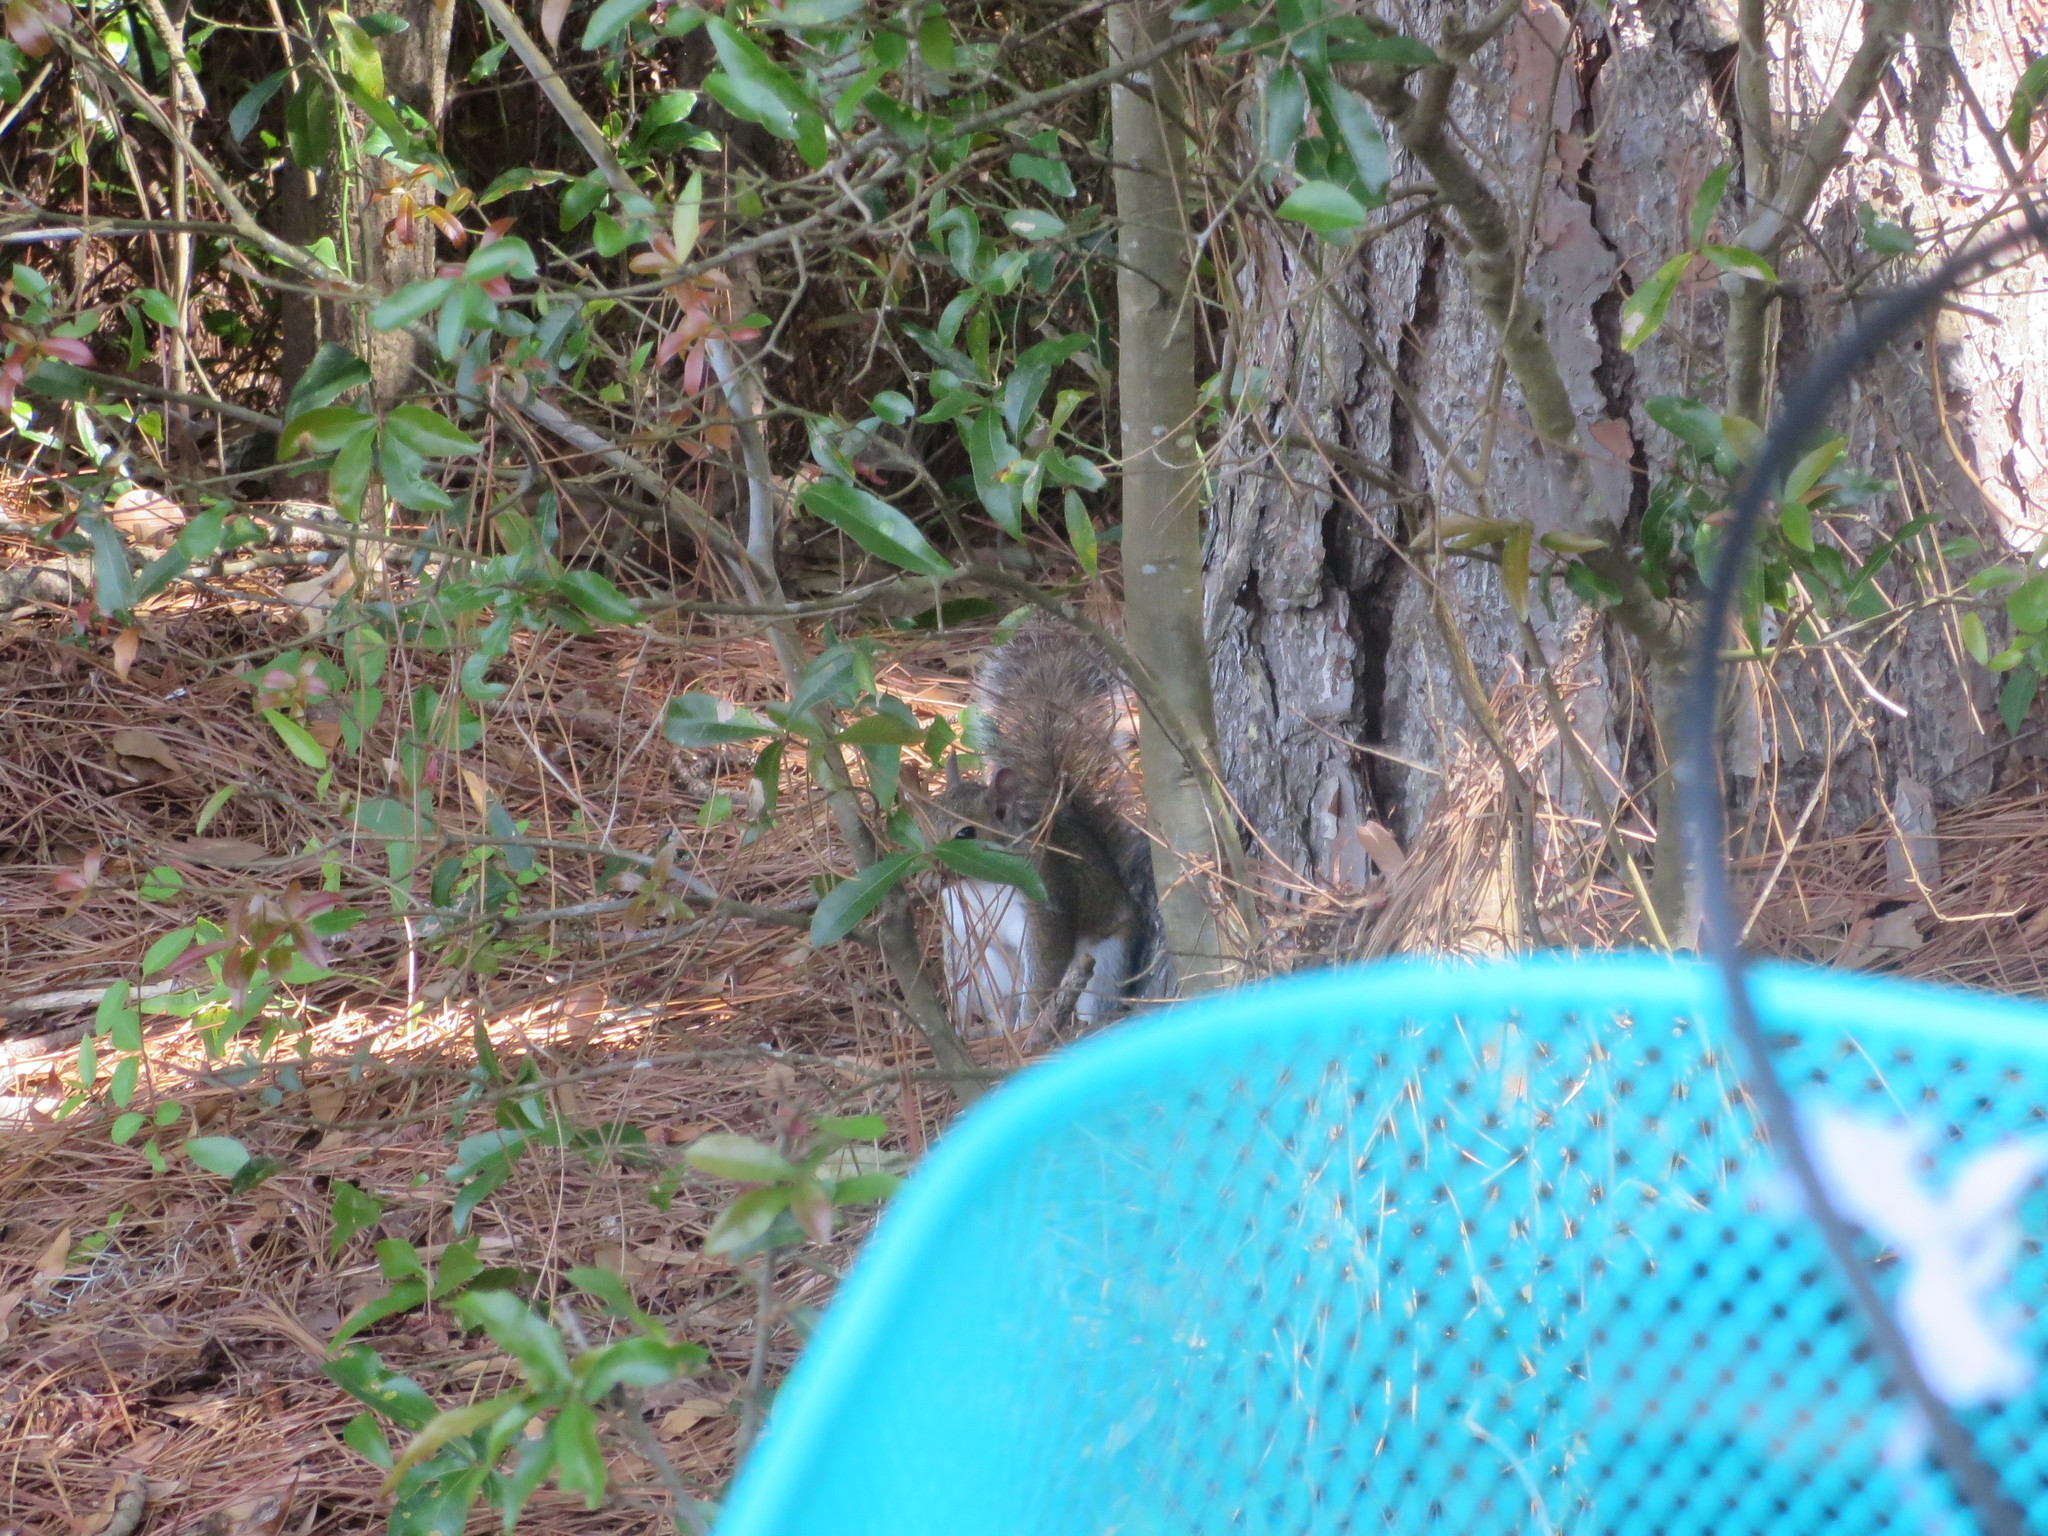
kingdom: Animalia
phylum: Chordata
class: Mammalia
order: Rodentia
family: Sciuridae
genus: Sciurus
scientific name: Sciurus carolinensis
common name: Eastern gray squirrel
